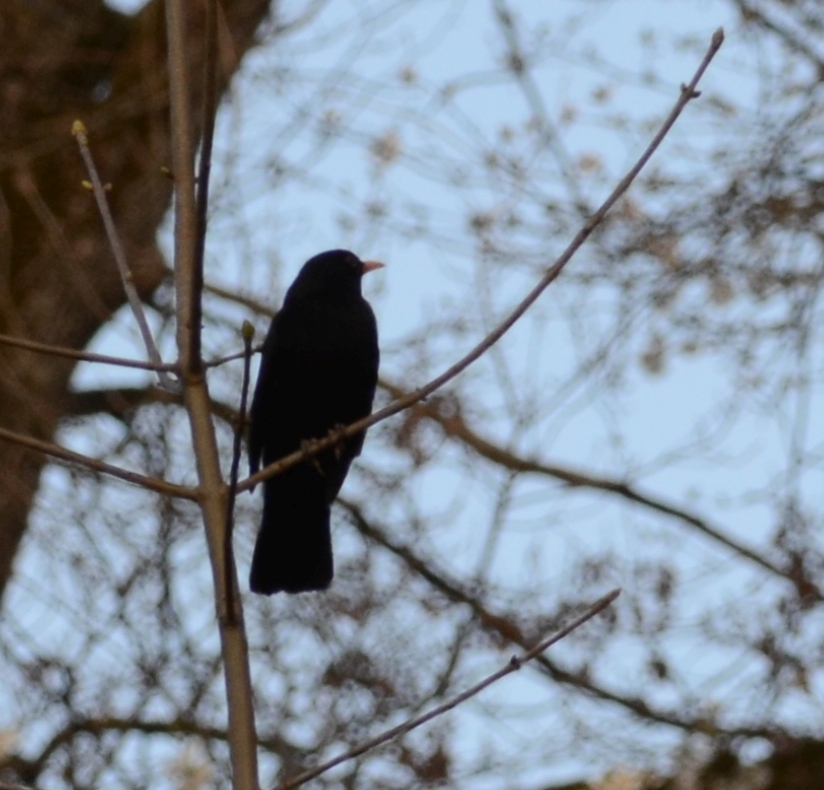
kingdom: Animalia
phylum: Chordata
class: Aves
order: Passeriformes
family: Turdidae
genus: Turdus
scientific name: Turdus merula
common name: Common blackbird
